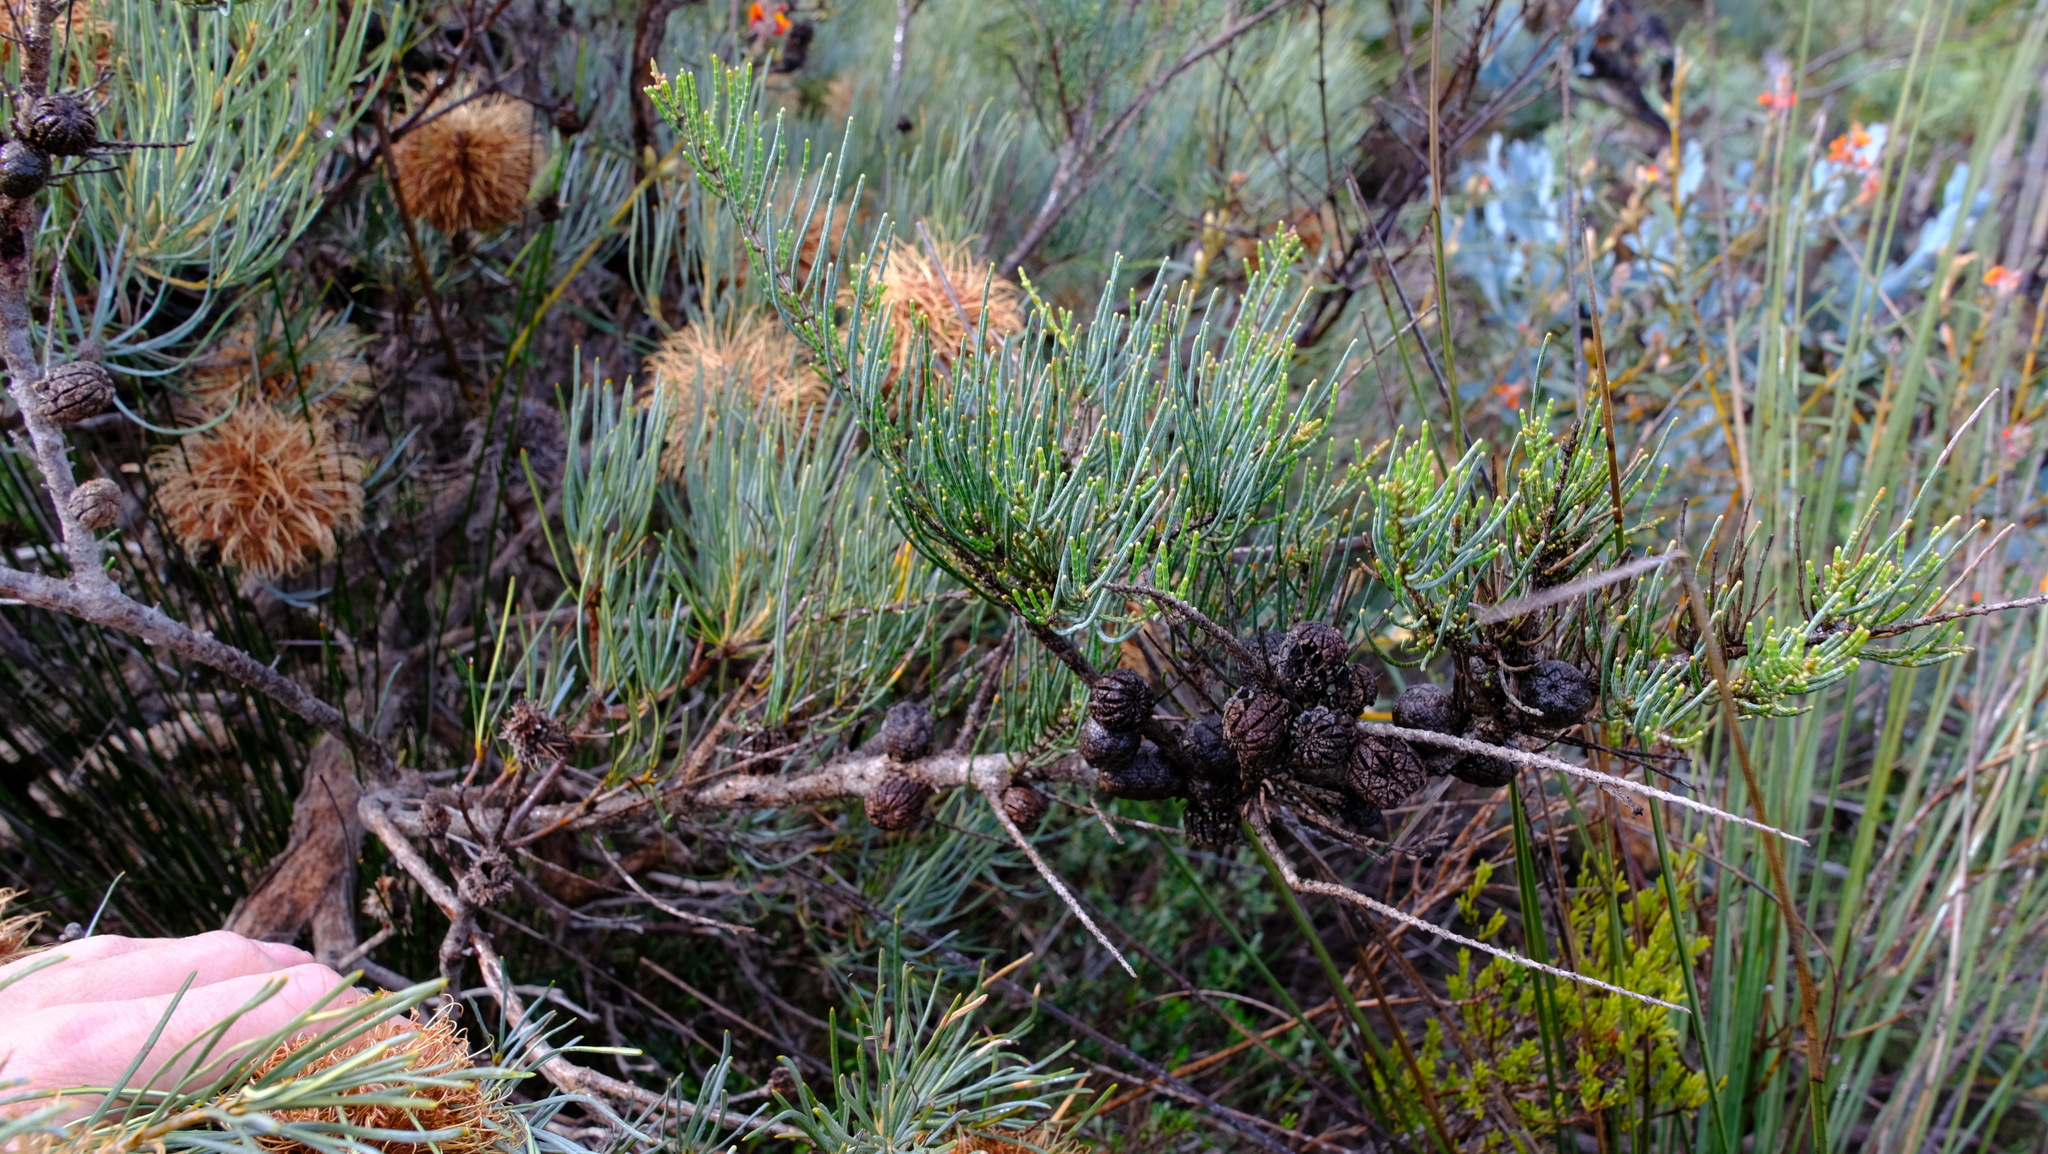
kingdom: Plantae
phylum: Tracheophyta
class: Magnoliopsida
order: Fagales
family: Casuarinaceae
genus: Allocasuarina
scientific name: Allocasuarina humilis
